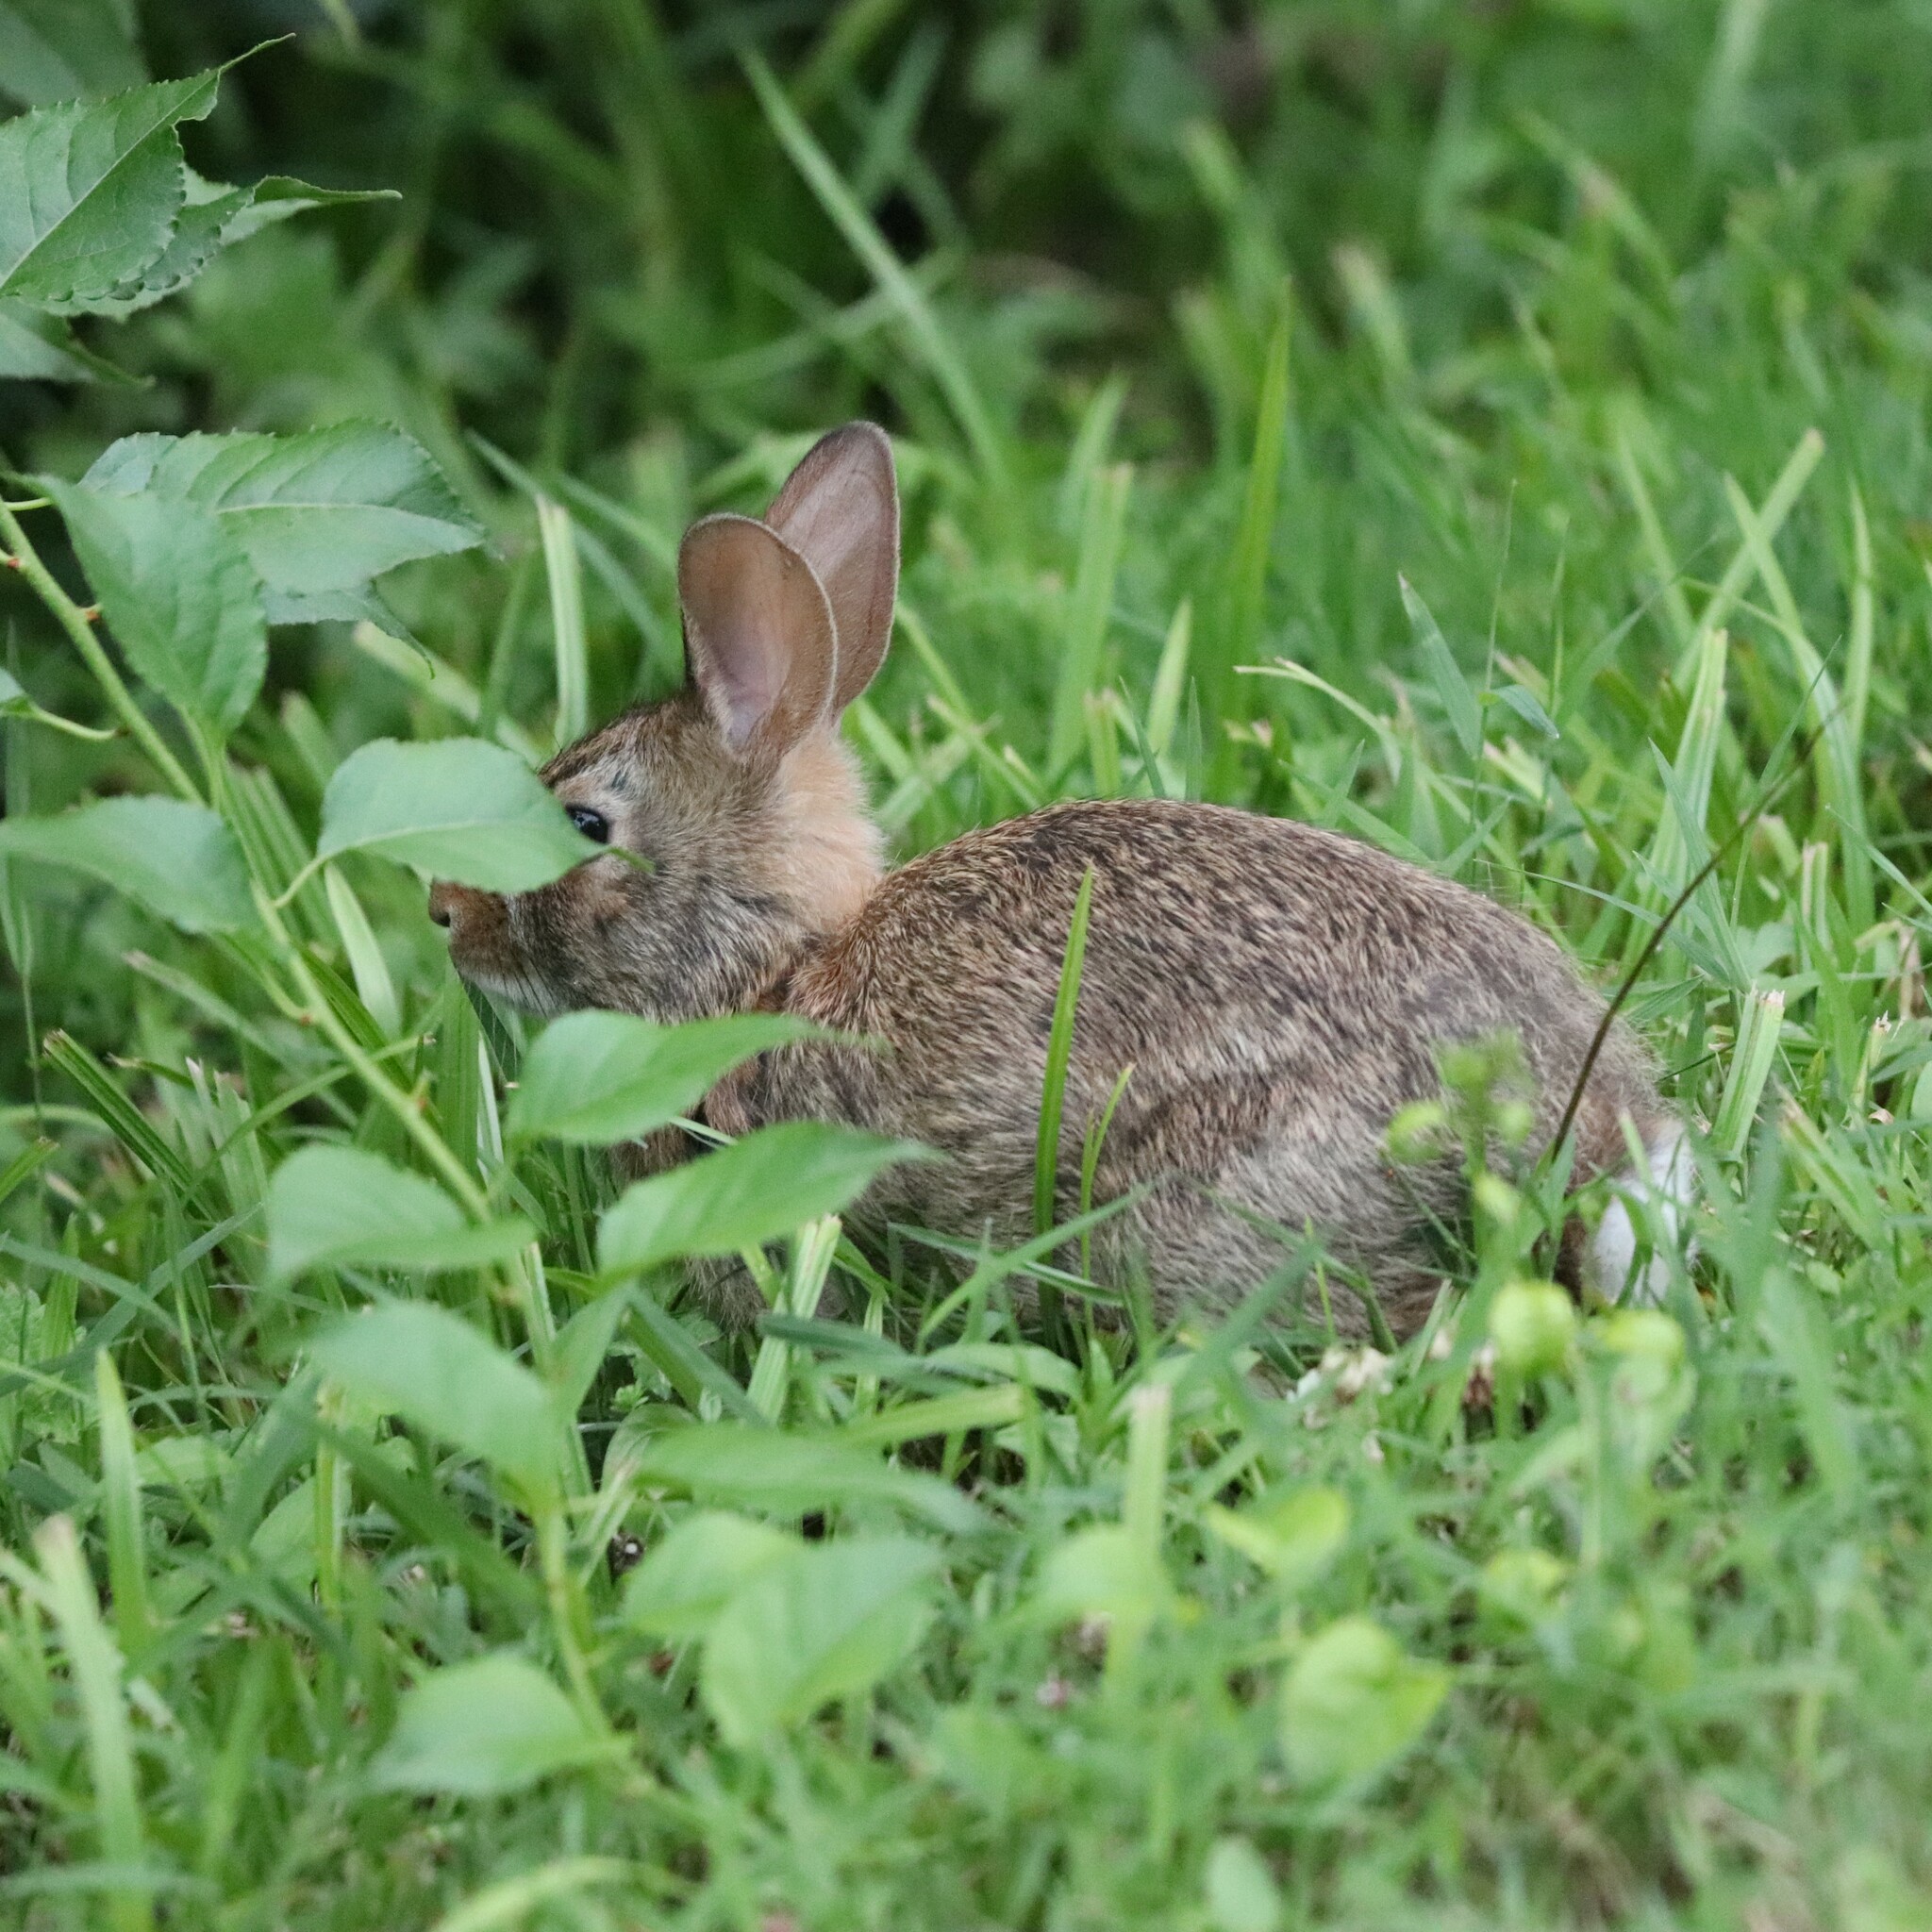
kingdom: Animalia
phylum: Chordata
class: Mammalia
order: Lagomorpha
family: Leporidae
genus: Sylvilagus
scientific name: Sylvilagus floridanus
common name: Eastern cottontail
